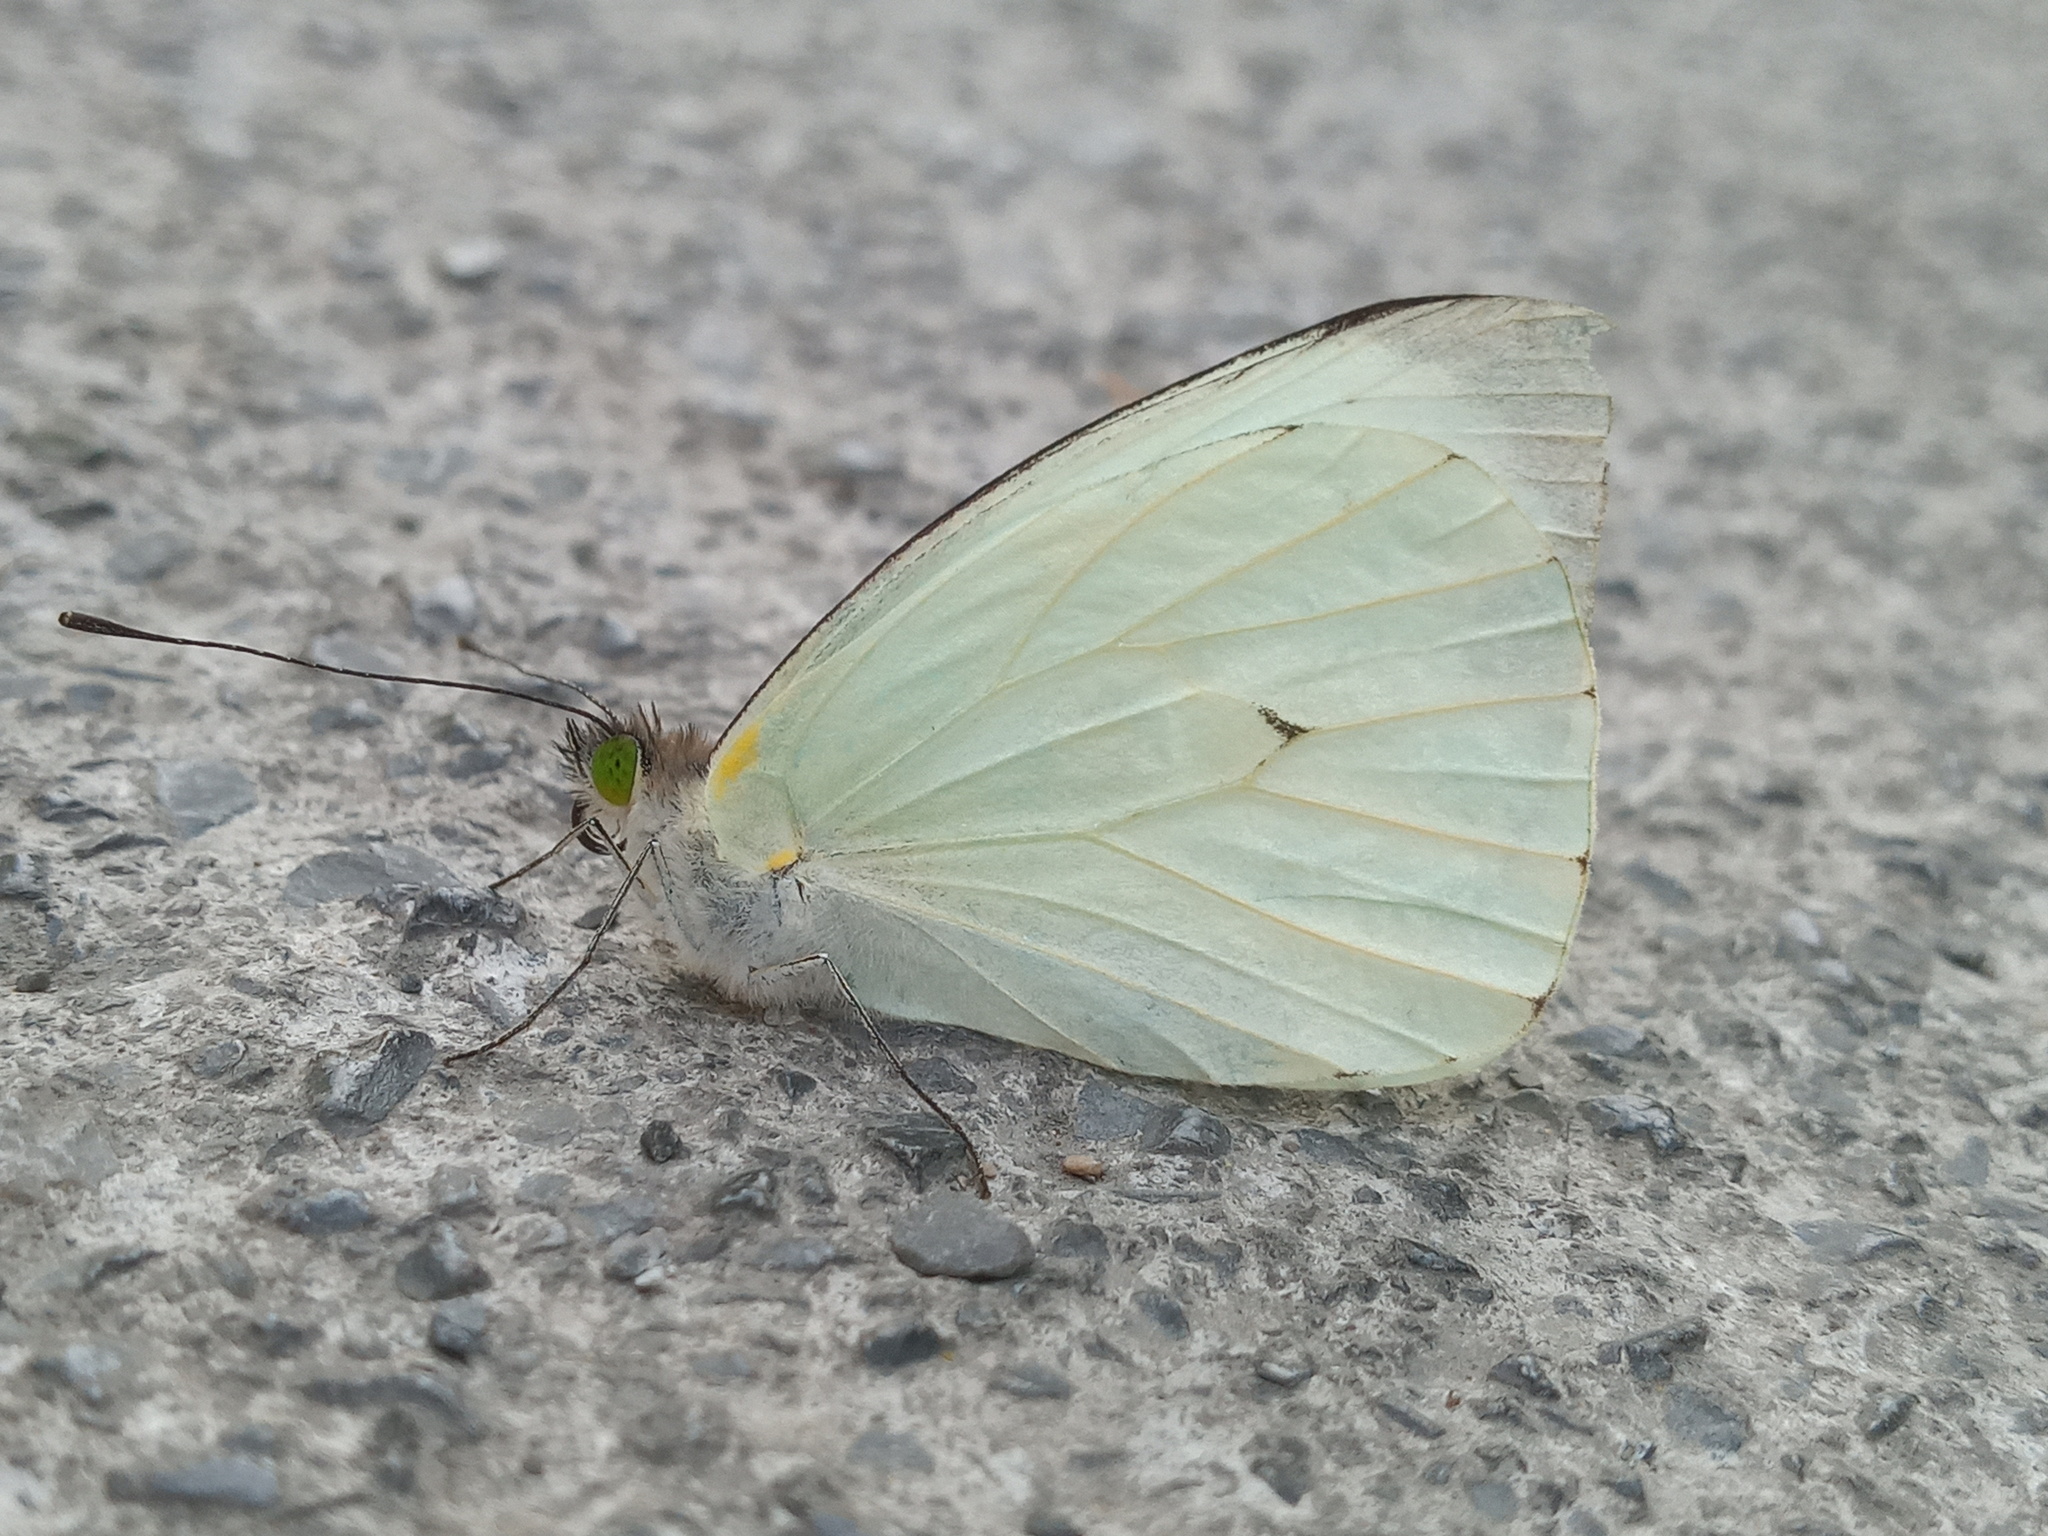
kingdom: Animalia
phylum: Arthropoda
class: Insecta
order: Lepidoptera
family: Pieridae
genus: Leptophobia
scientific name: Leptophobia aripa
